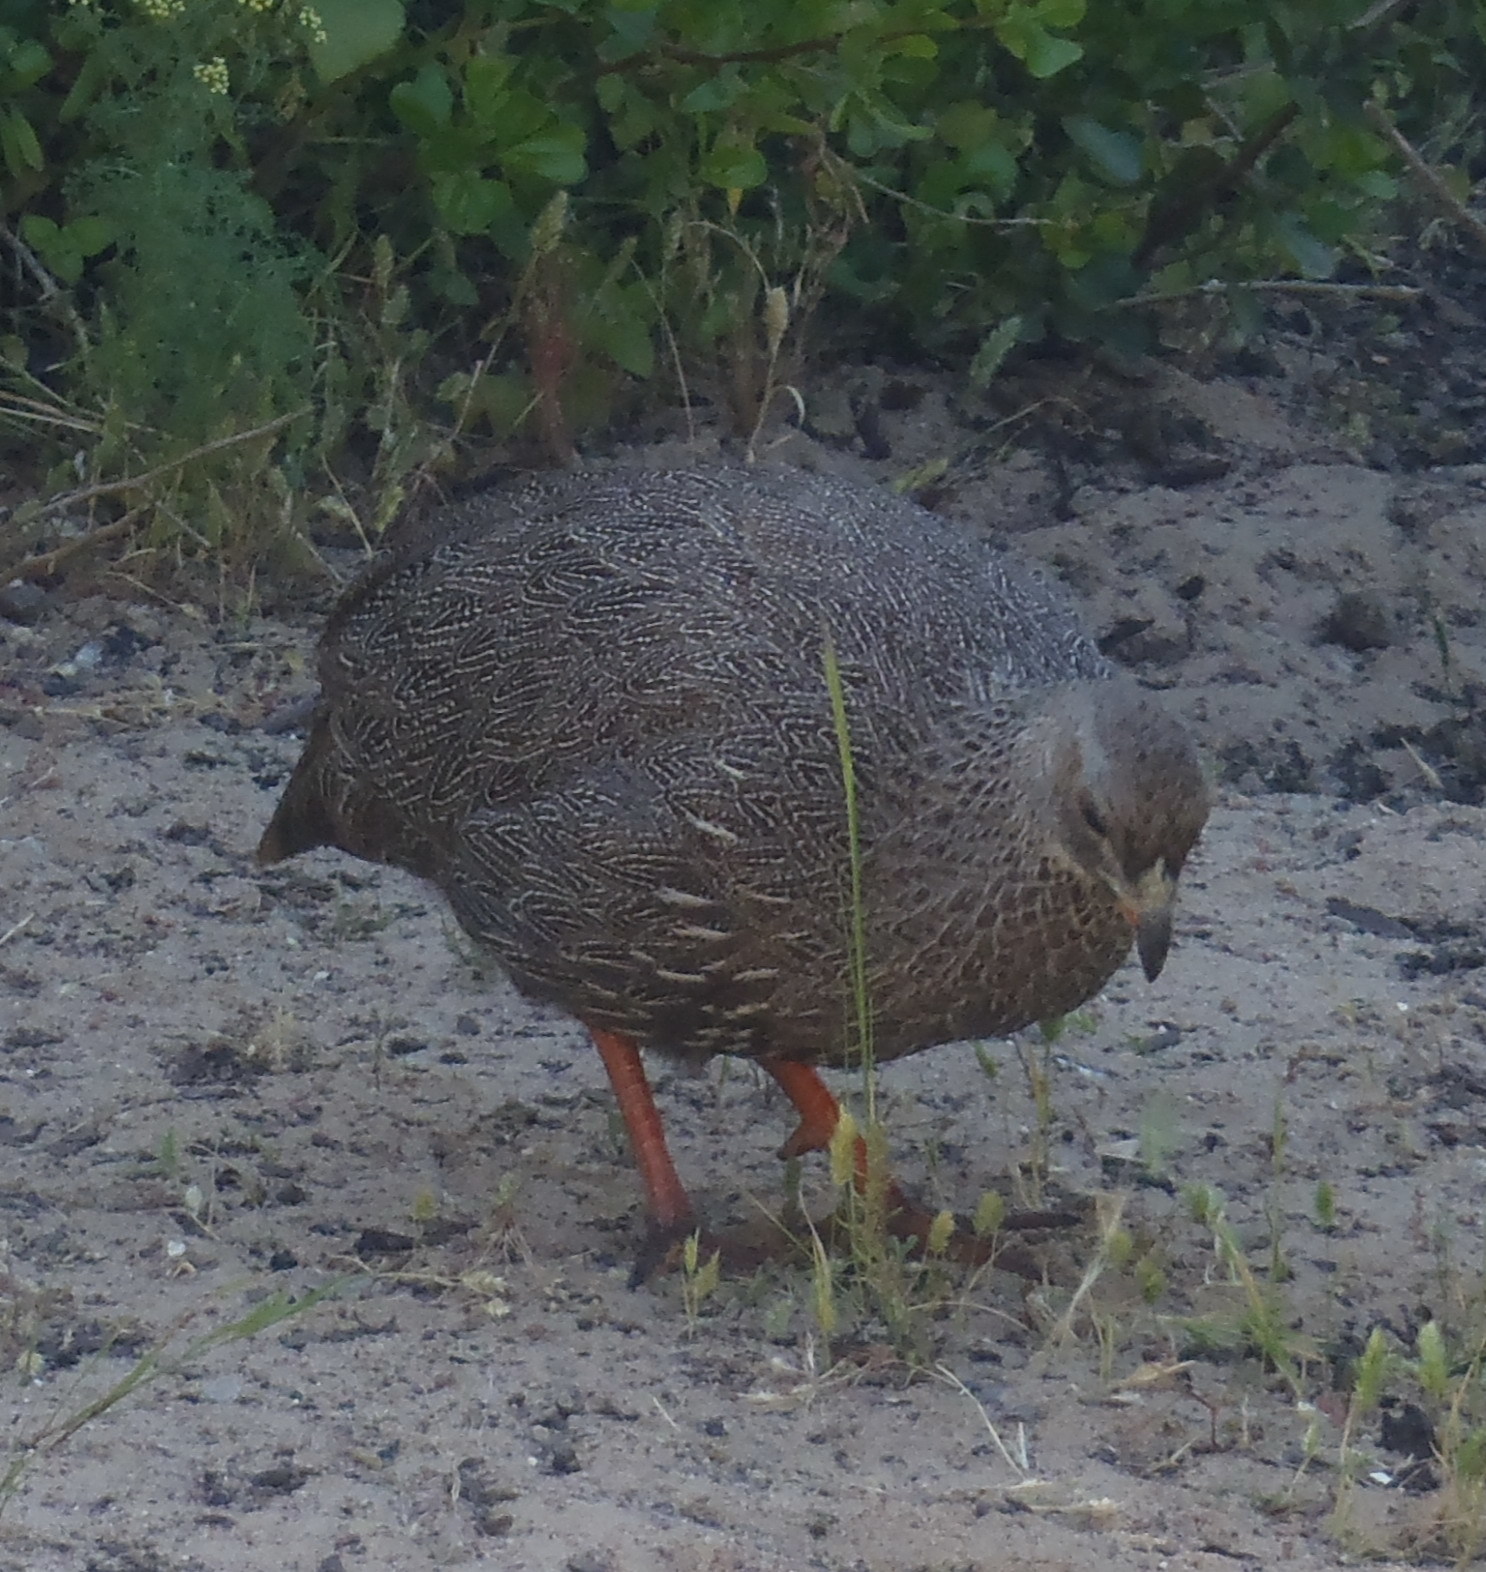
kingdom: Animalia
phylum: Chordata
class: Aves
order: Galliformes
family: Phasianidae
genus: Pternistis
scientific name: Pternistis capensis
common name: Cape spurfowl
